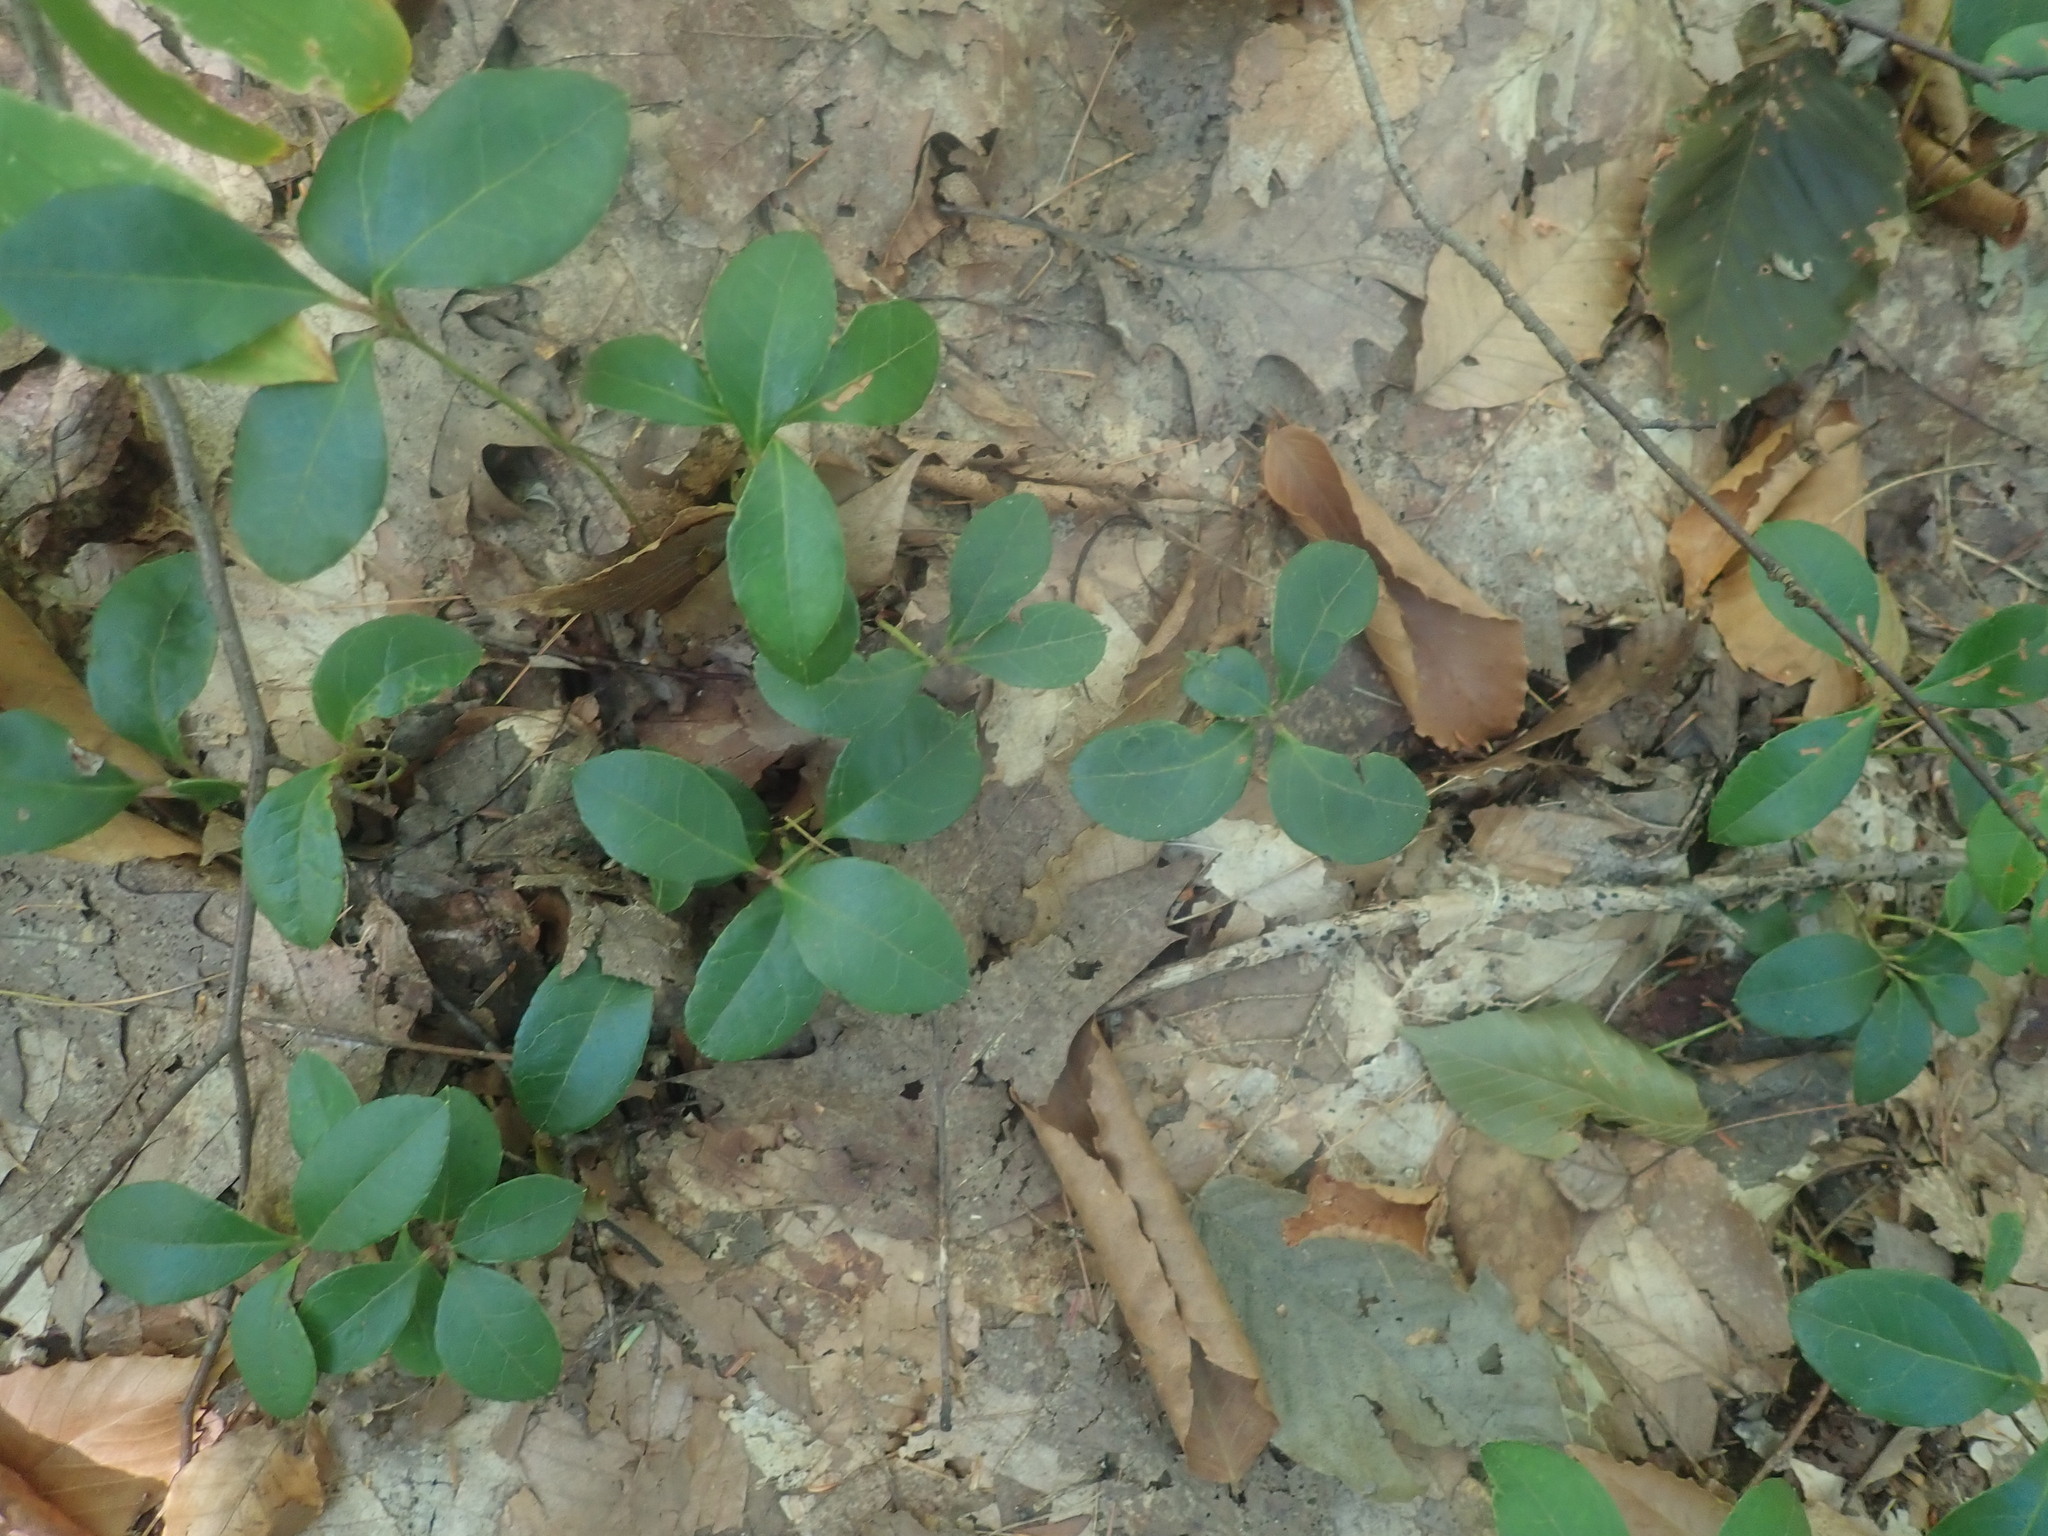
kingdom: Plantae
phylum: Tracheophyta
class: Magnoliopsida
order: Ericales
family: Ericaceae
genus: Gaultheria
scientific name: Gaultheria procumbens
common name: Checkerberry
